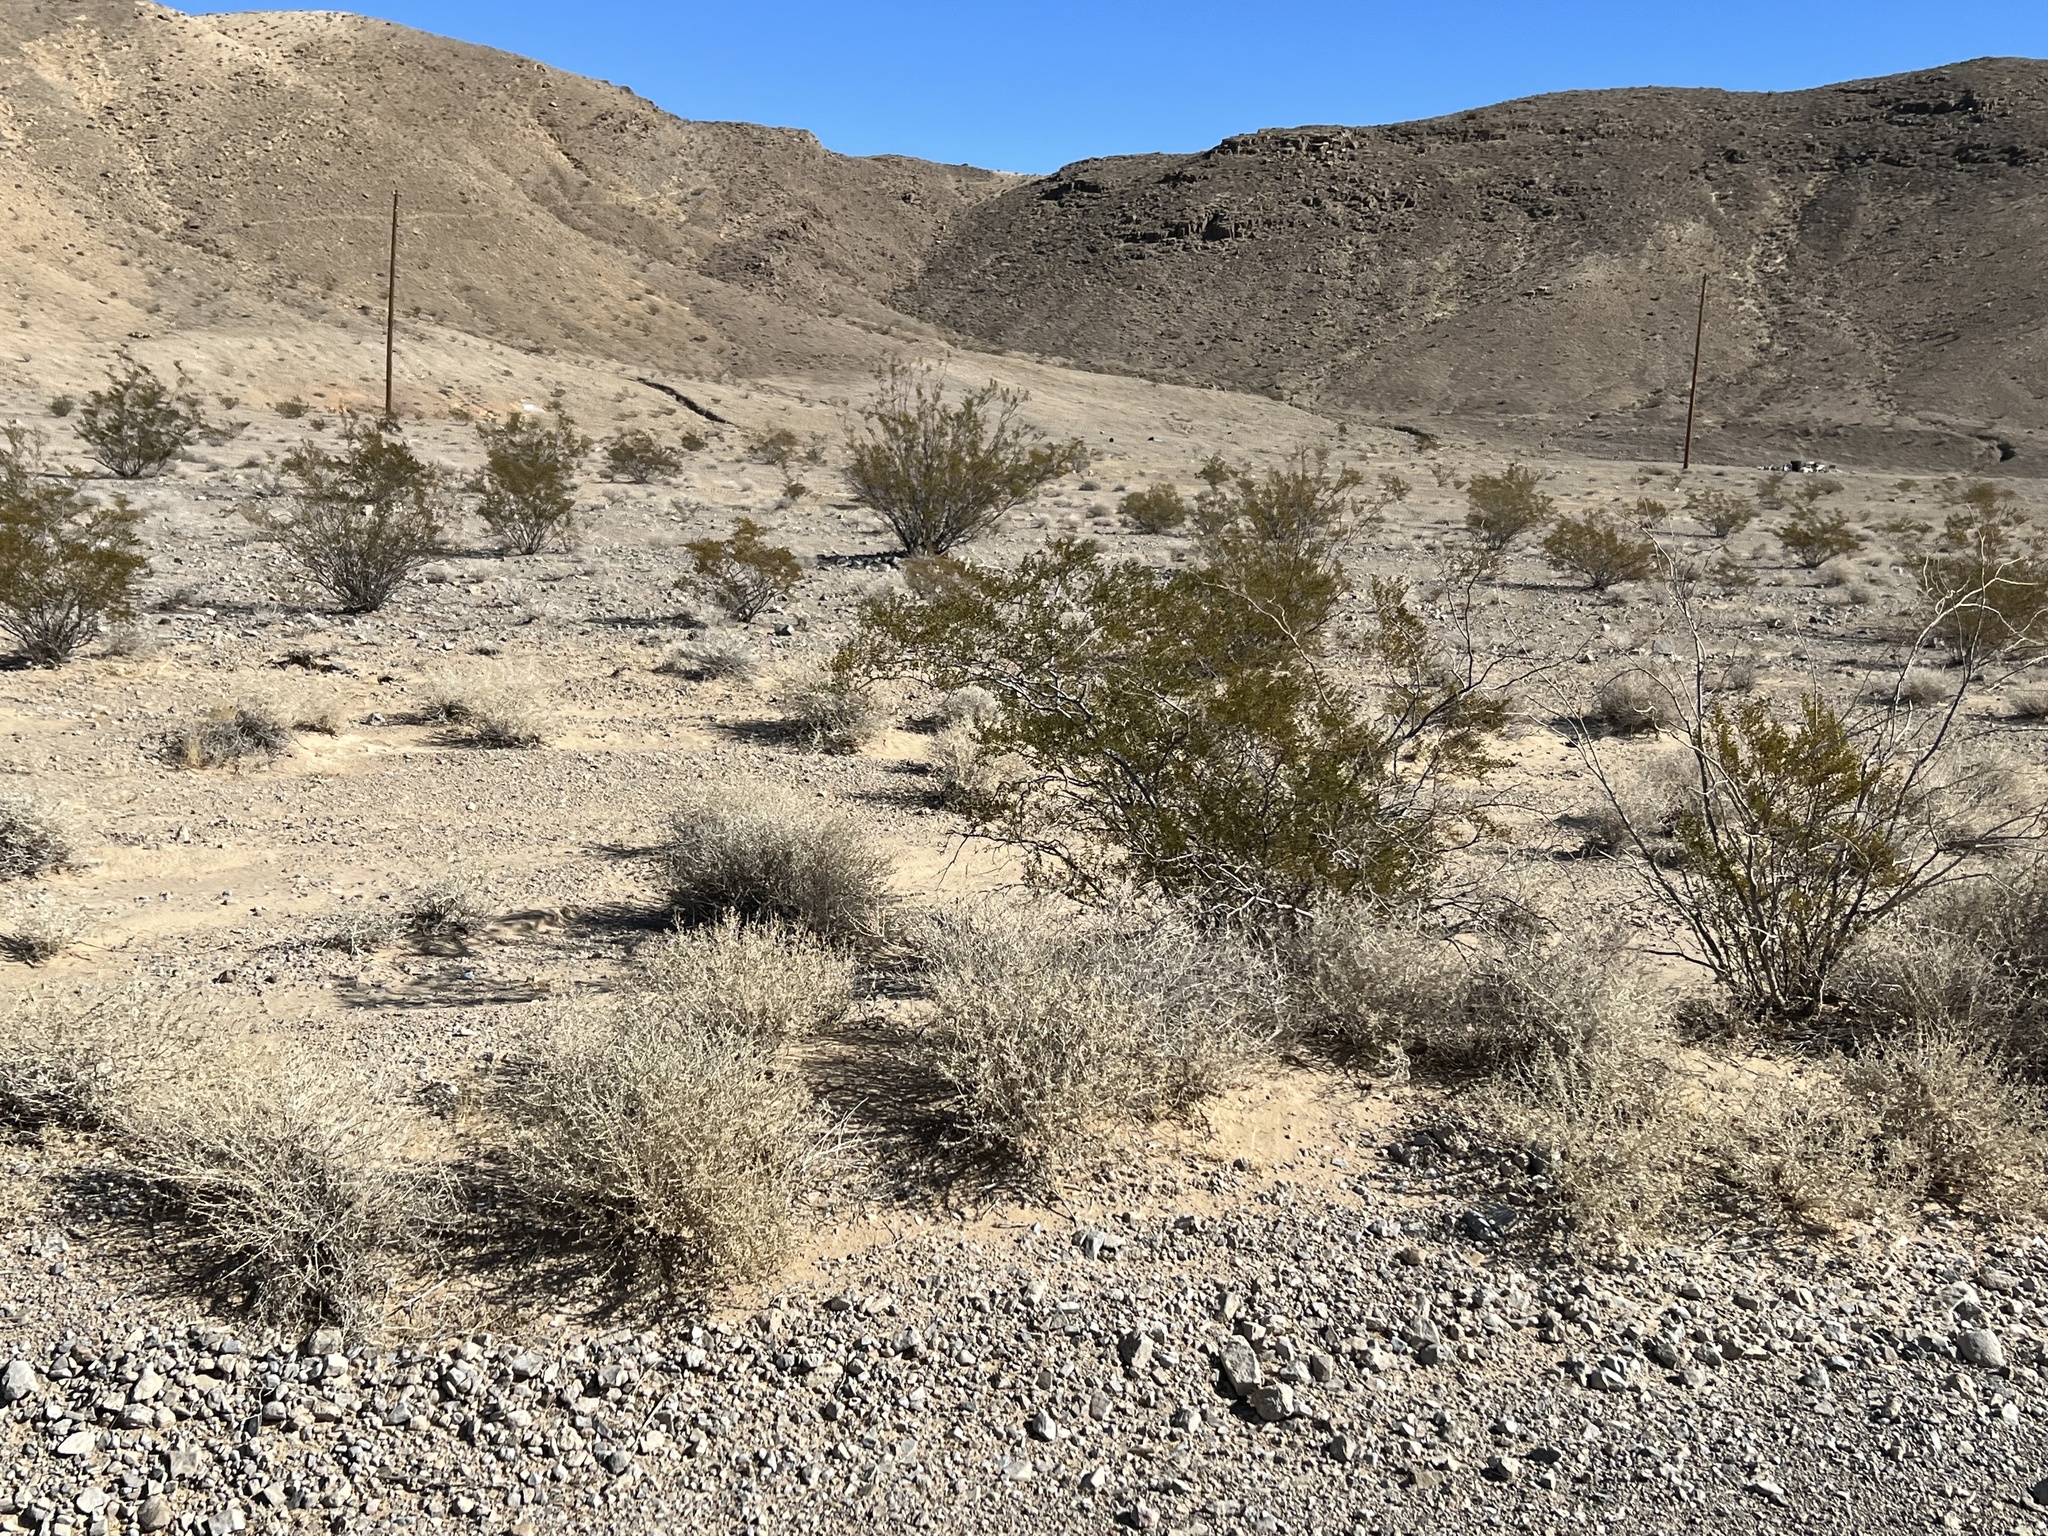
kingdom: Plantae
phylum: Tracheophyta
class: Magnoliopsida
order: Zygophyllales
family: Zygophyllaceae
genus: Larrea
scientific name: Larrea tridentata
